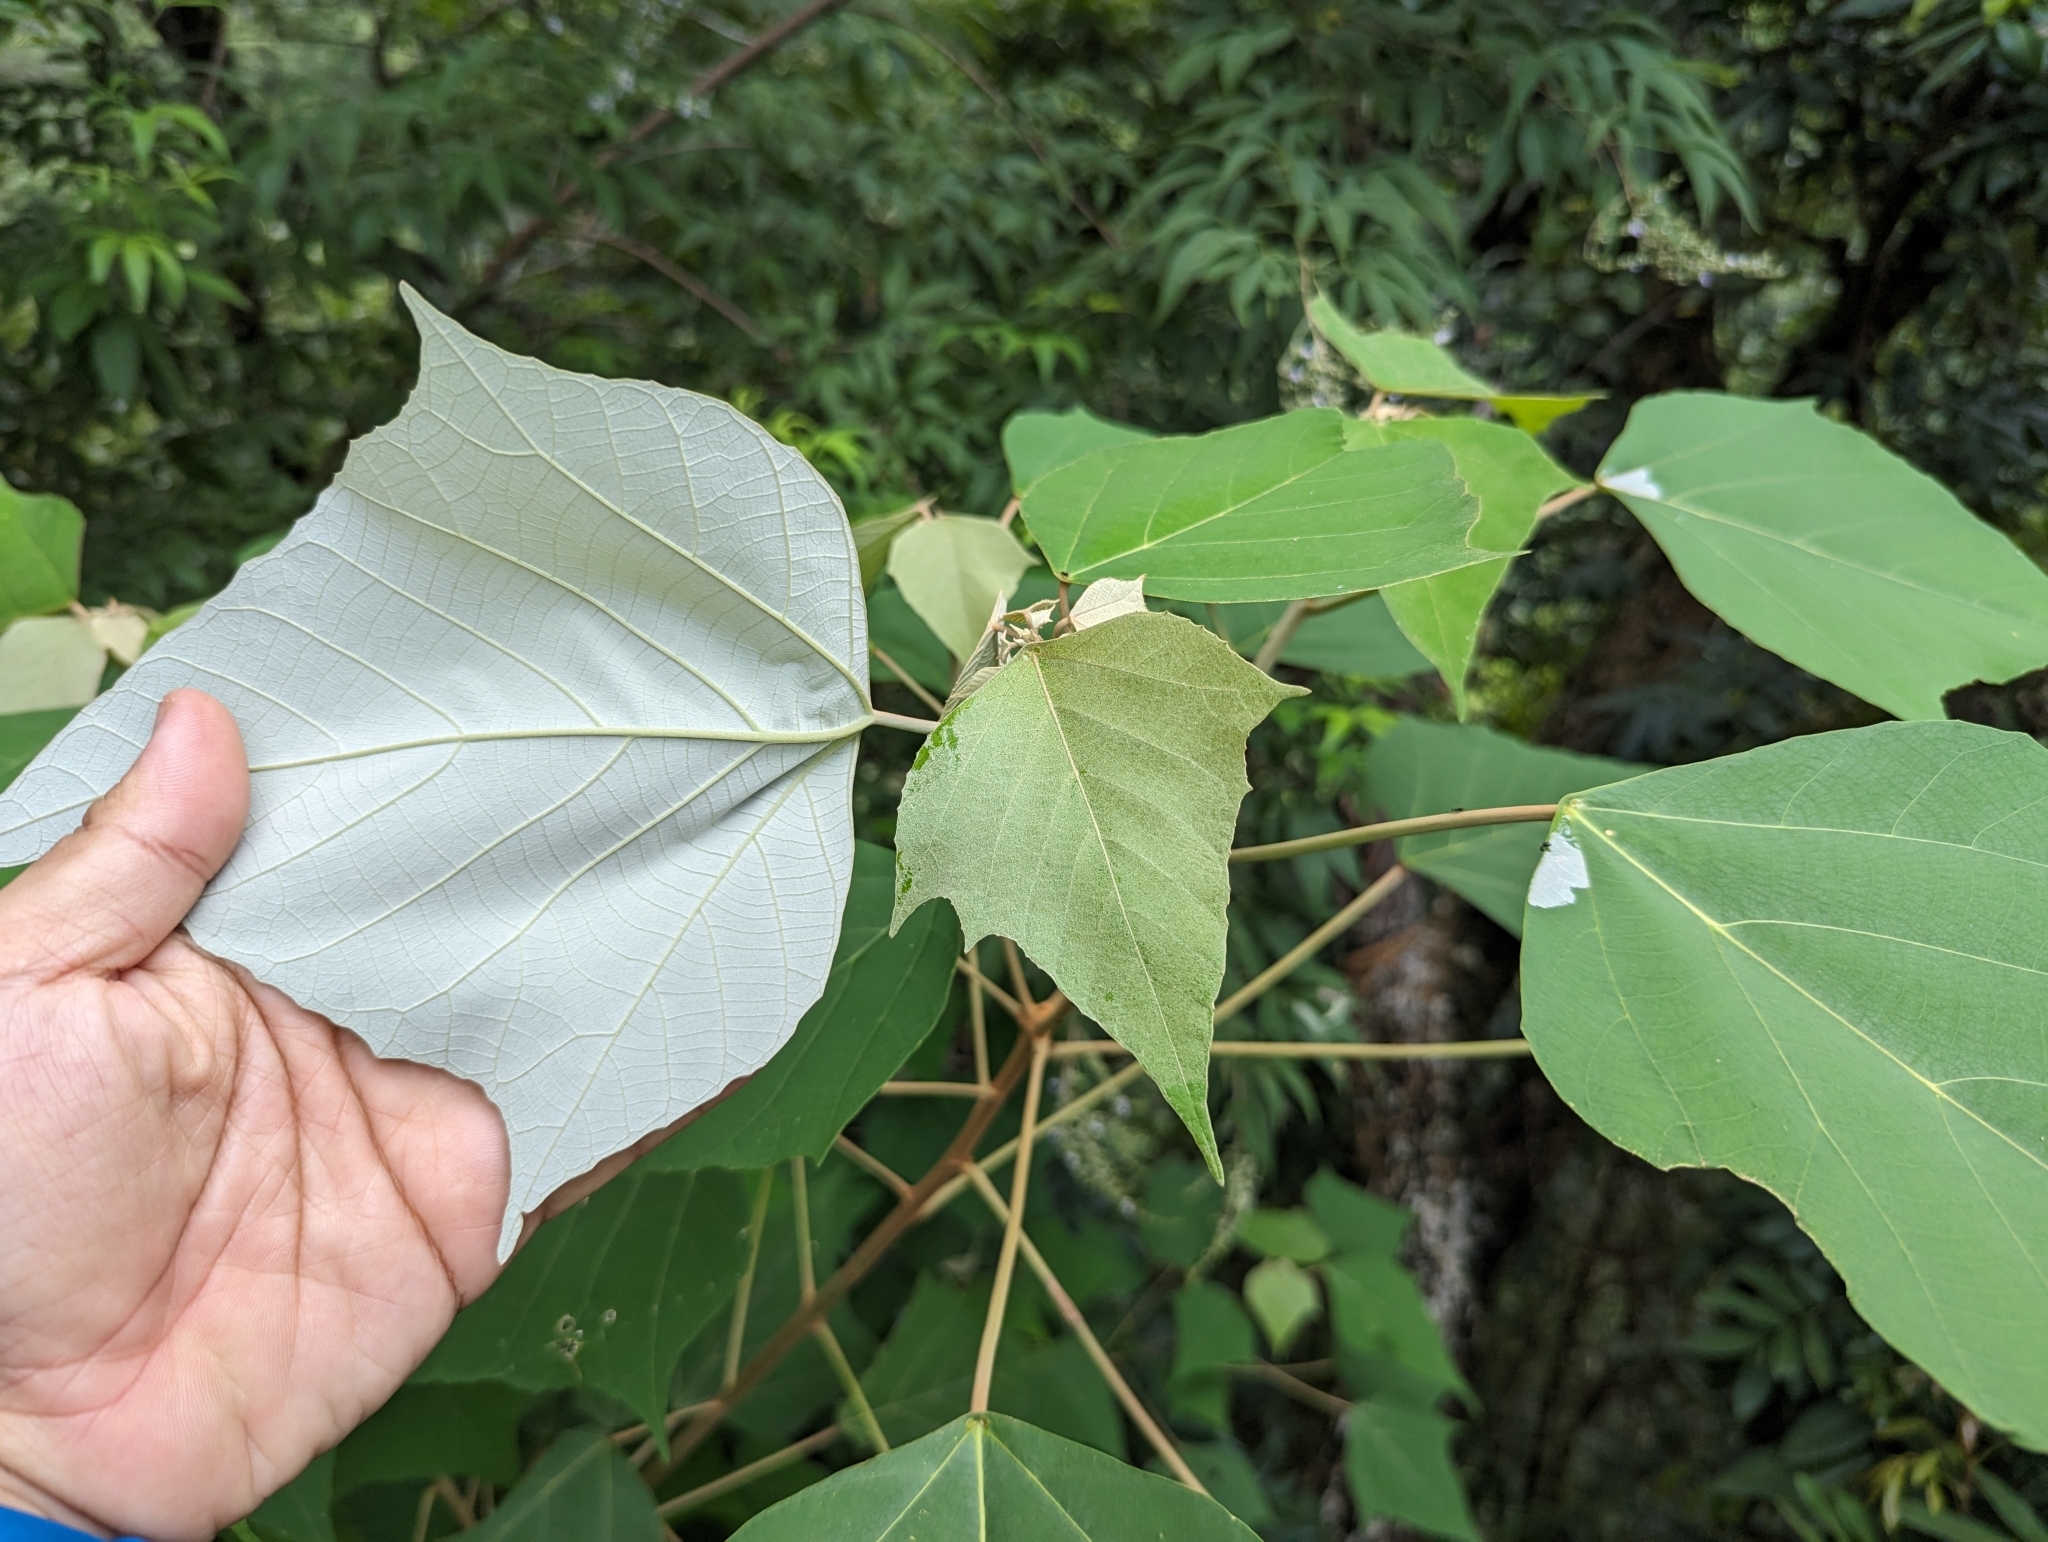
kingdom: Plantae
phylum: Tracheophyta
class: Magnoliopsida
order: Malpighiales
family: Euphorbiaceae
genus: Mallotus
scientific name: Mallotus paniculatus
